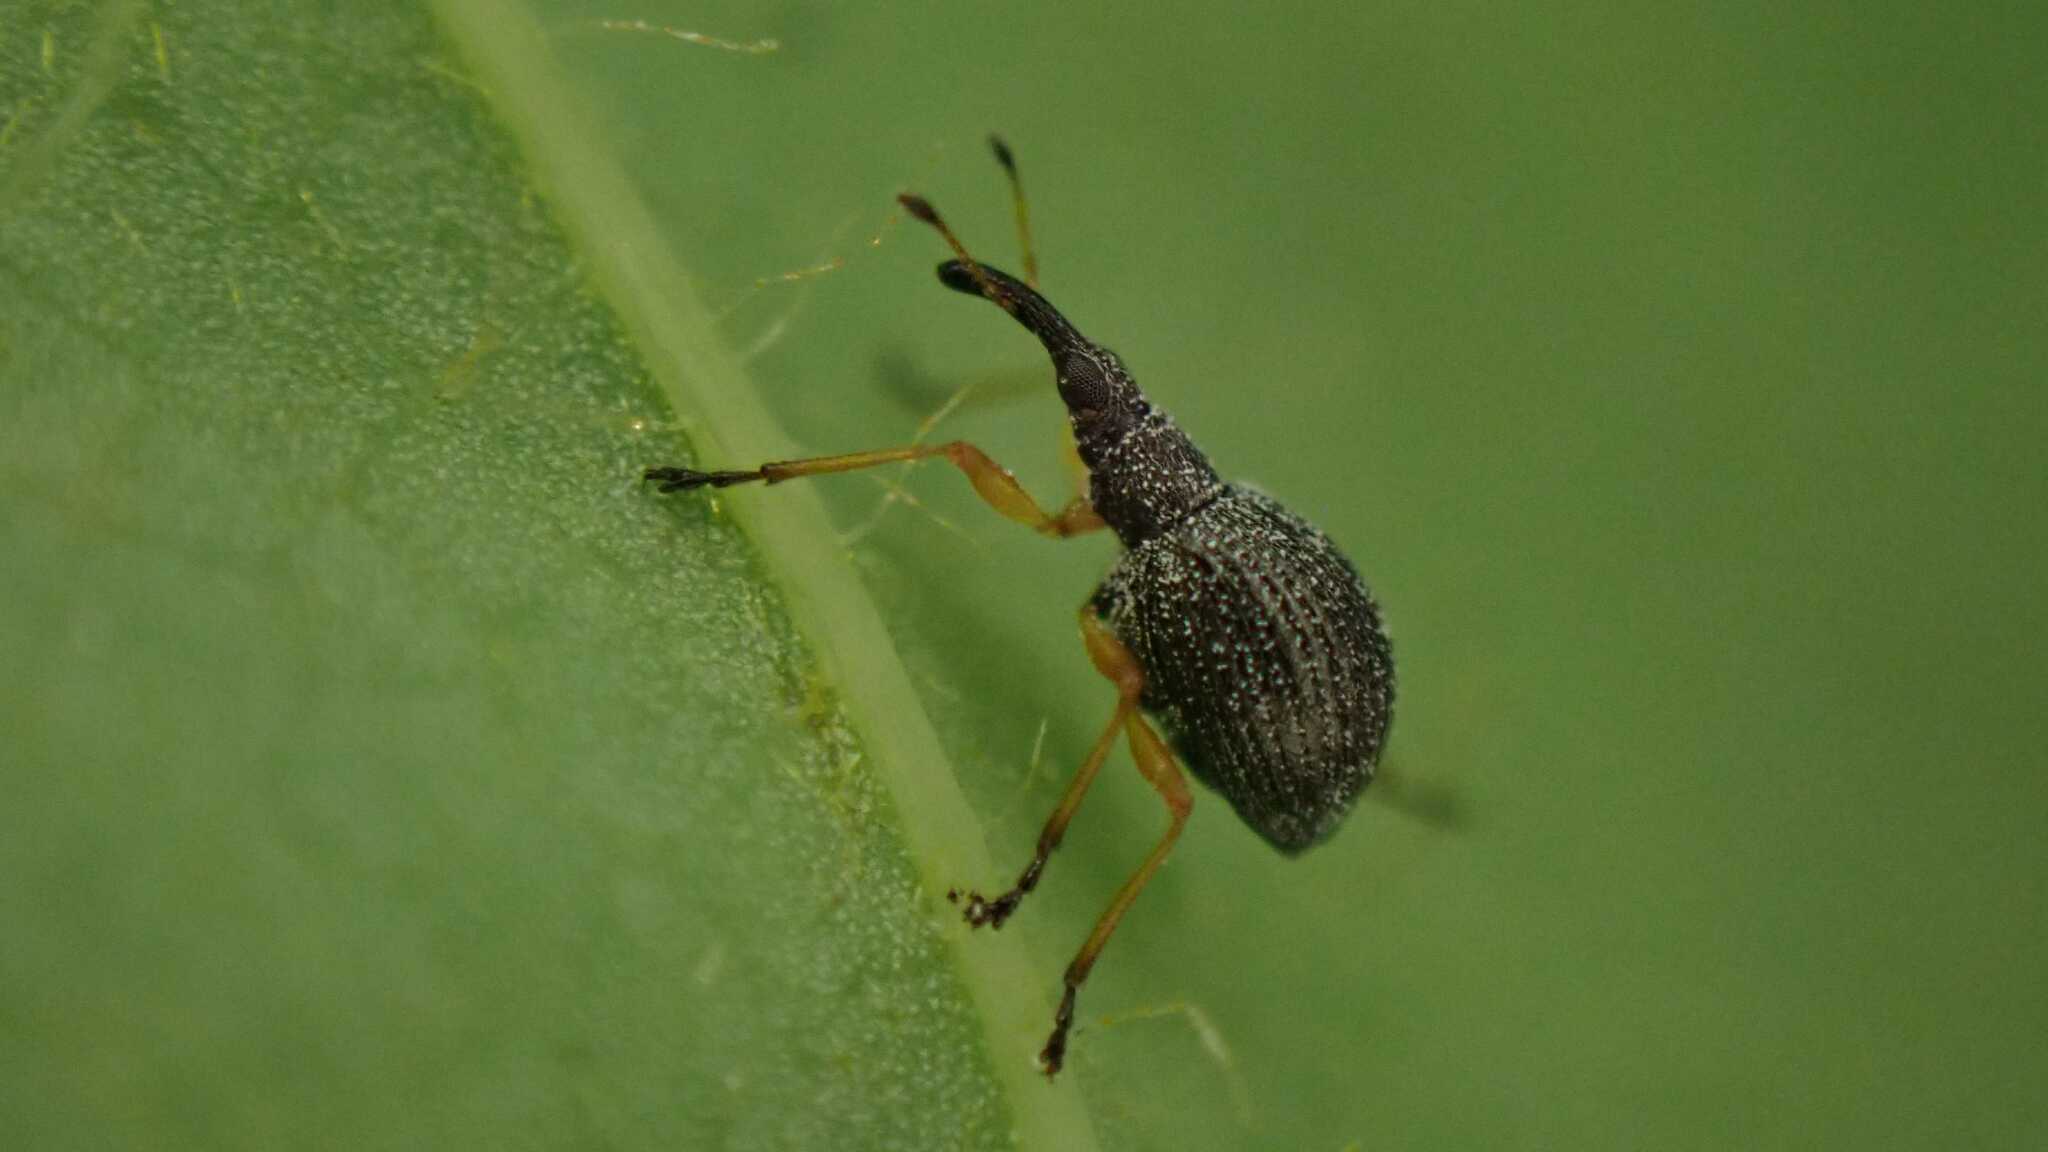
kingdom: Animalia
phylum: Arthropoda
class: Insecta
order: Coleoptera
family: Apionidae
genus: Protapion
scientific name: Protapion fulvipes
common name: White clover seed weevil
